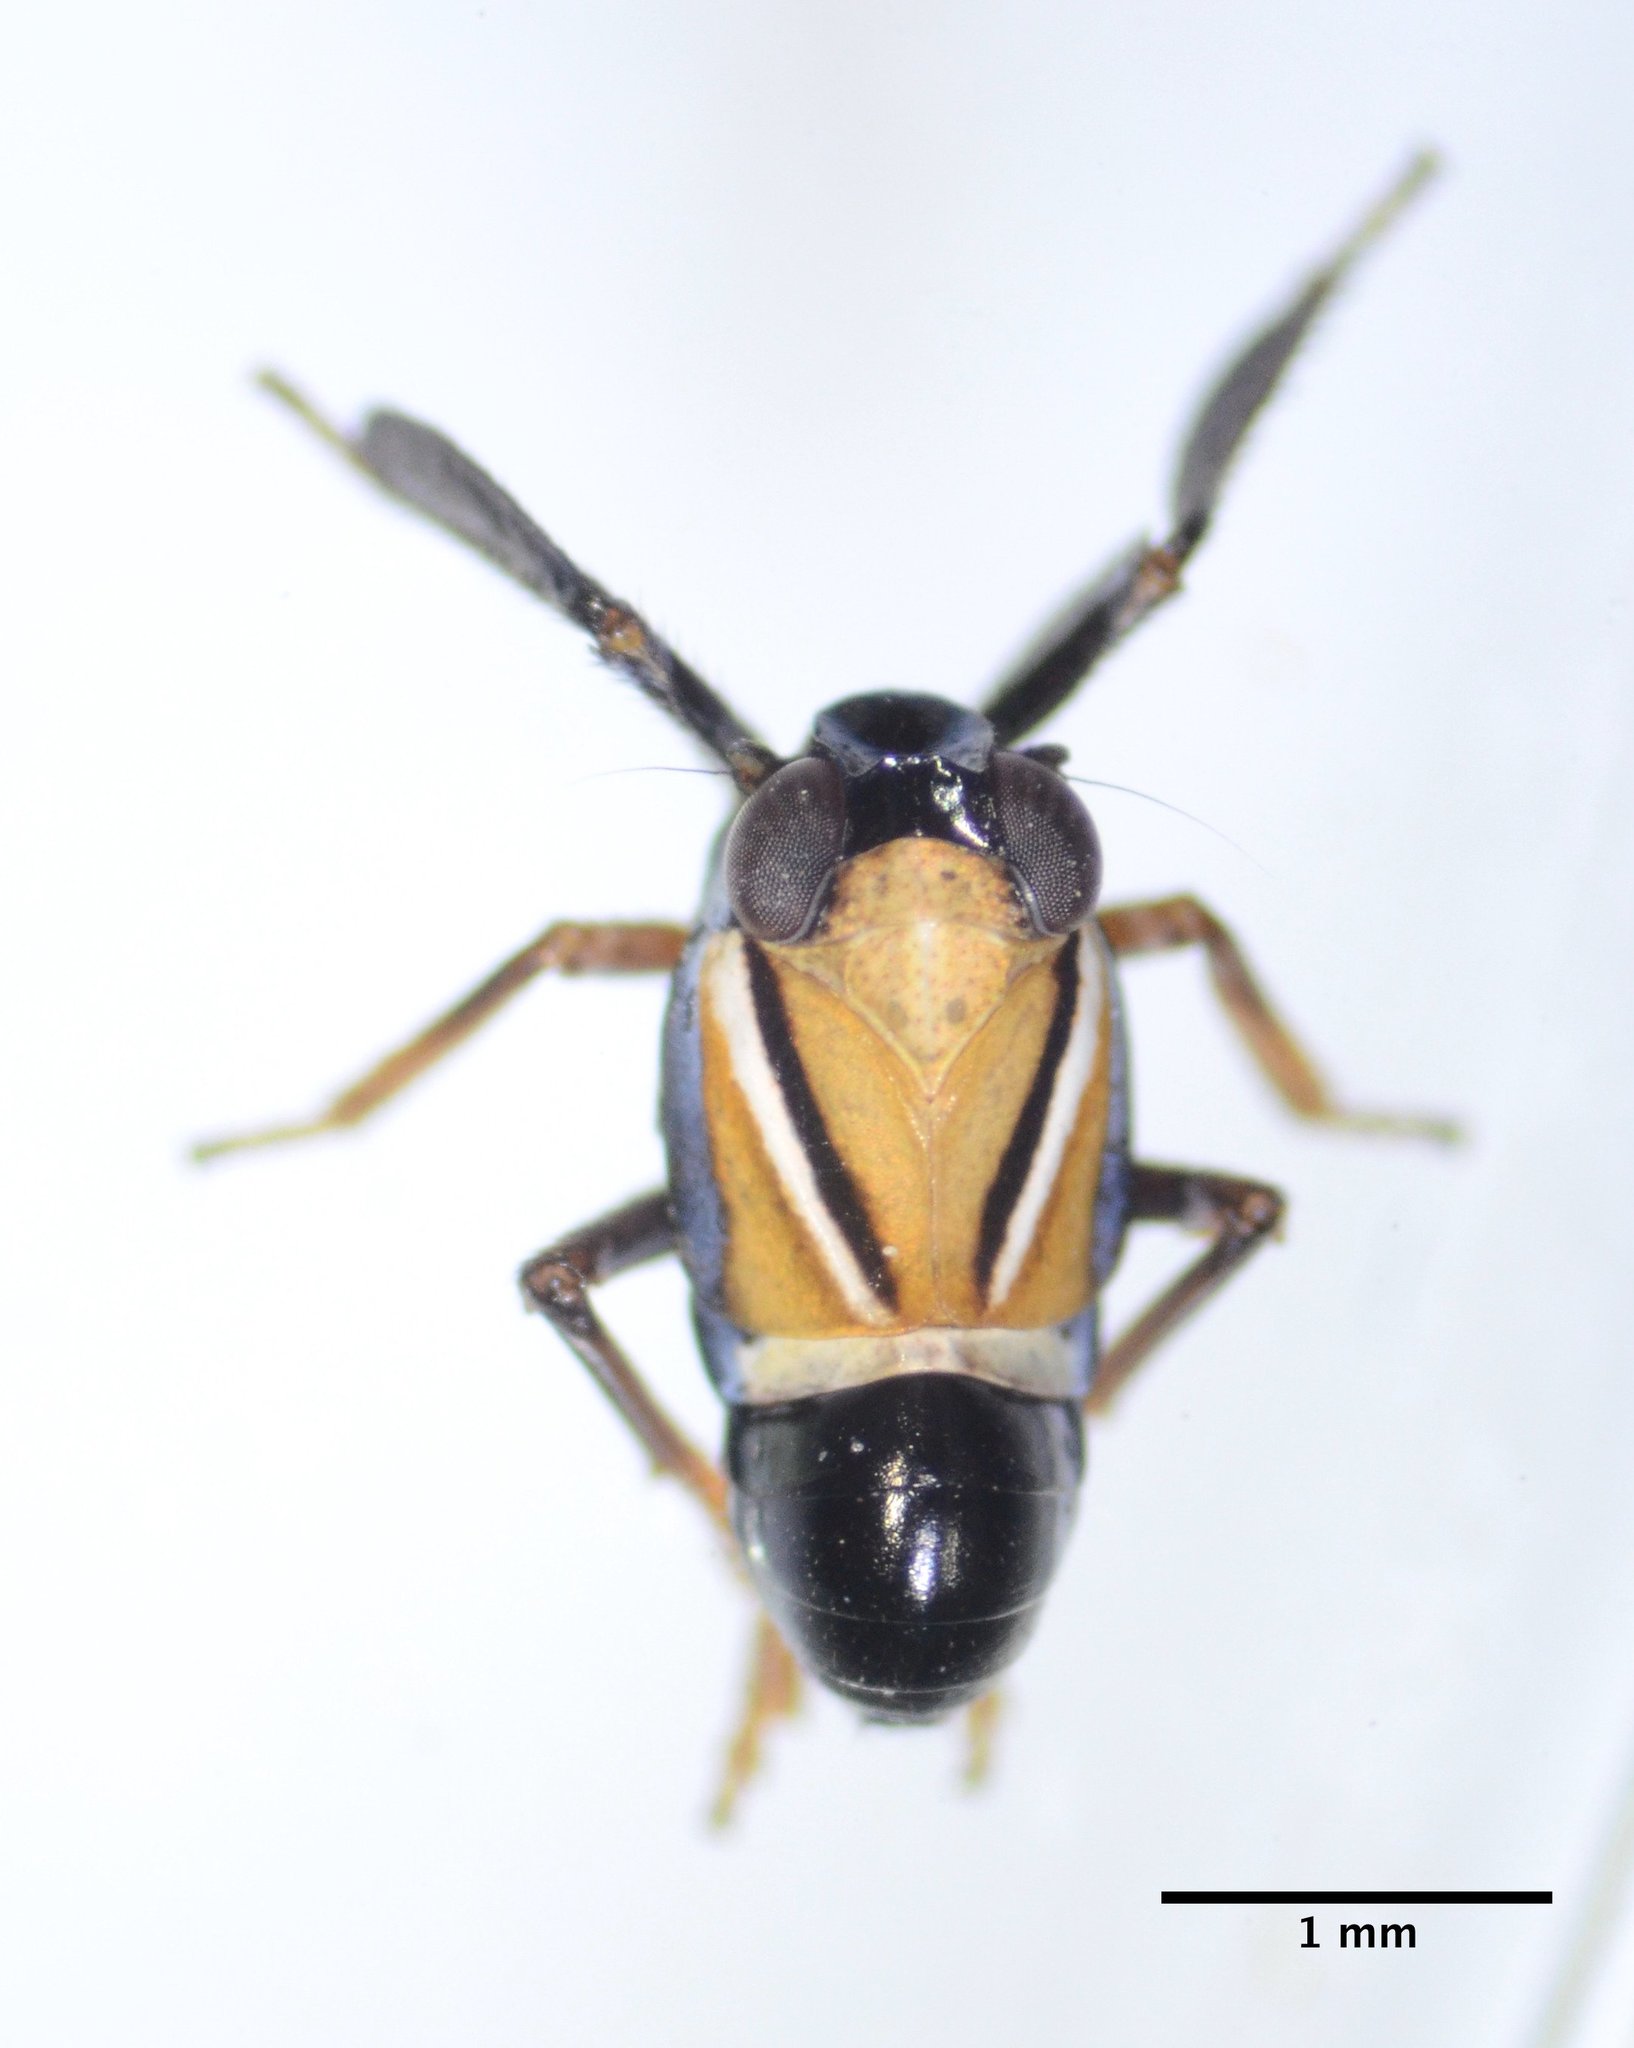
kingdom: Animalia
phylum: Arthropoda
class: Insecta
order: Hemiptera
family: Caliscelidae
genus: Caliscelis
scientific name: Caliscelis bonellii
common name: Planthopper
